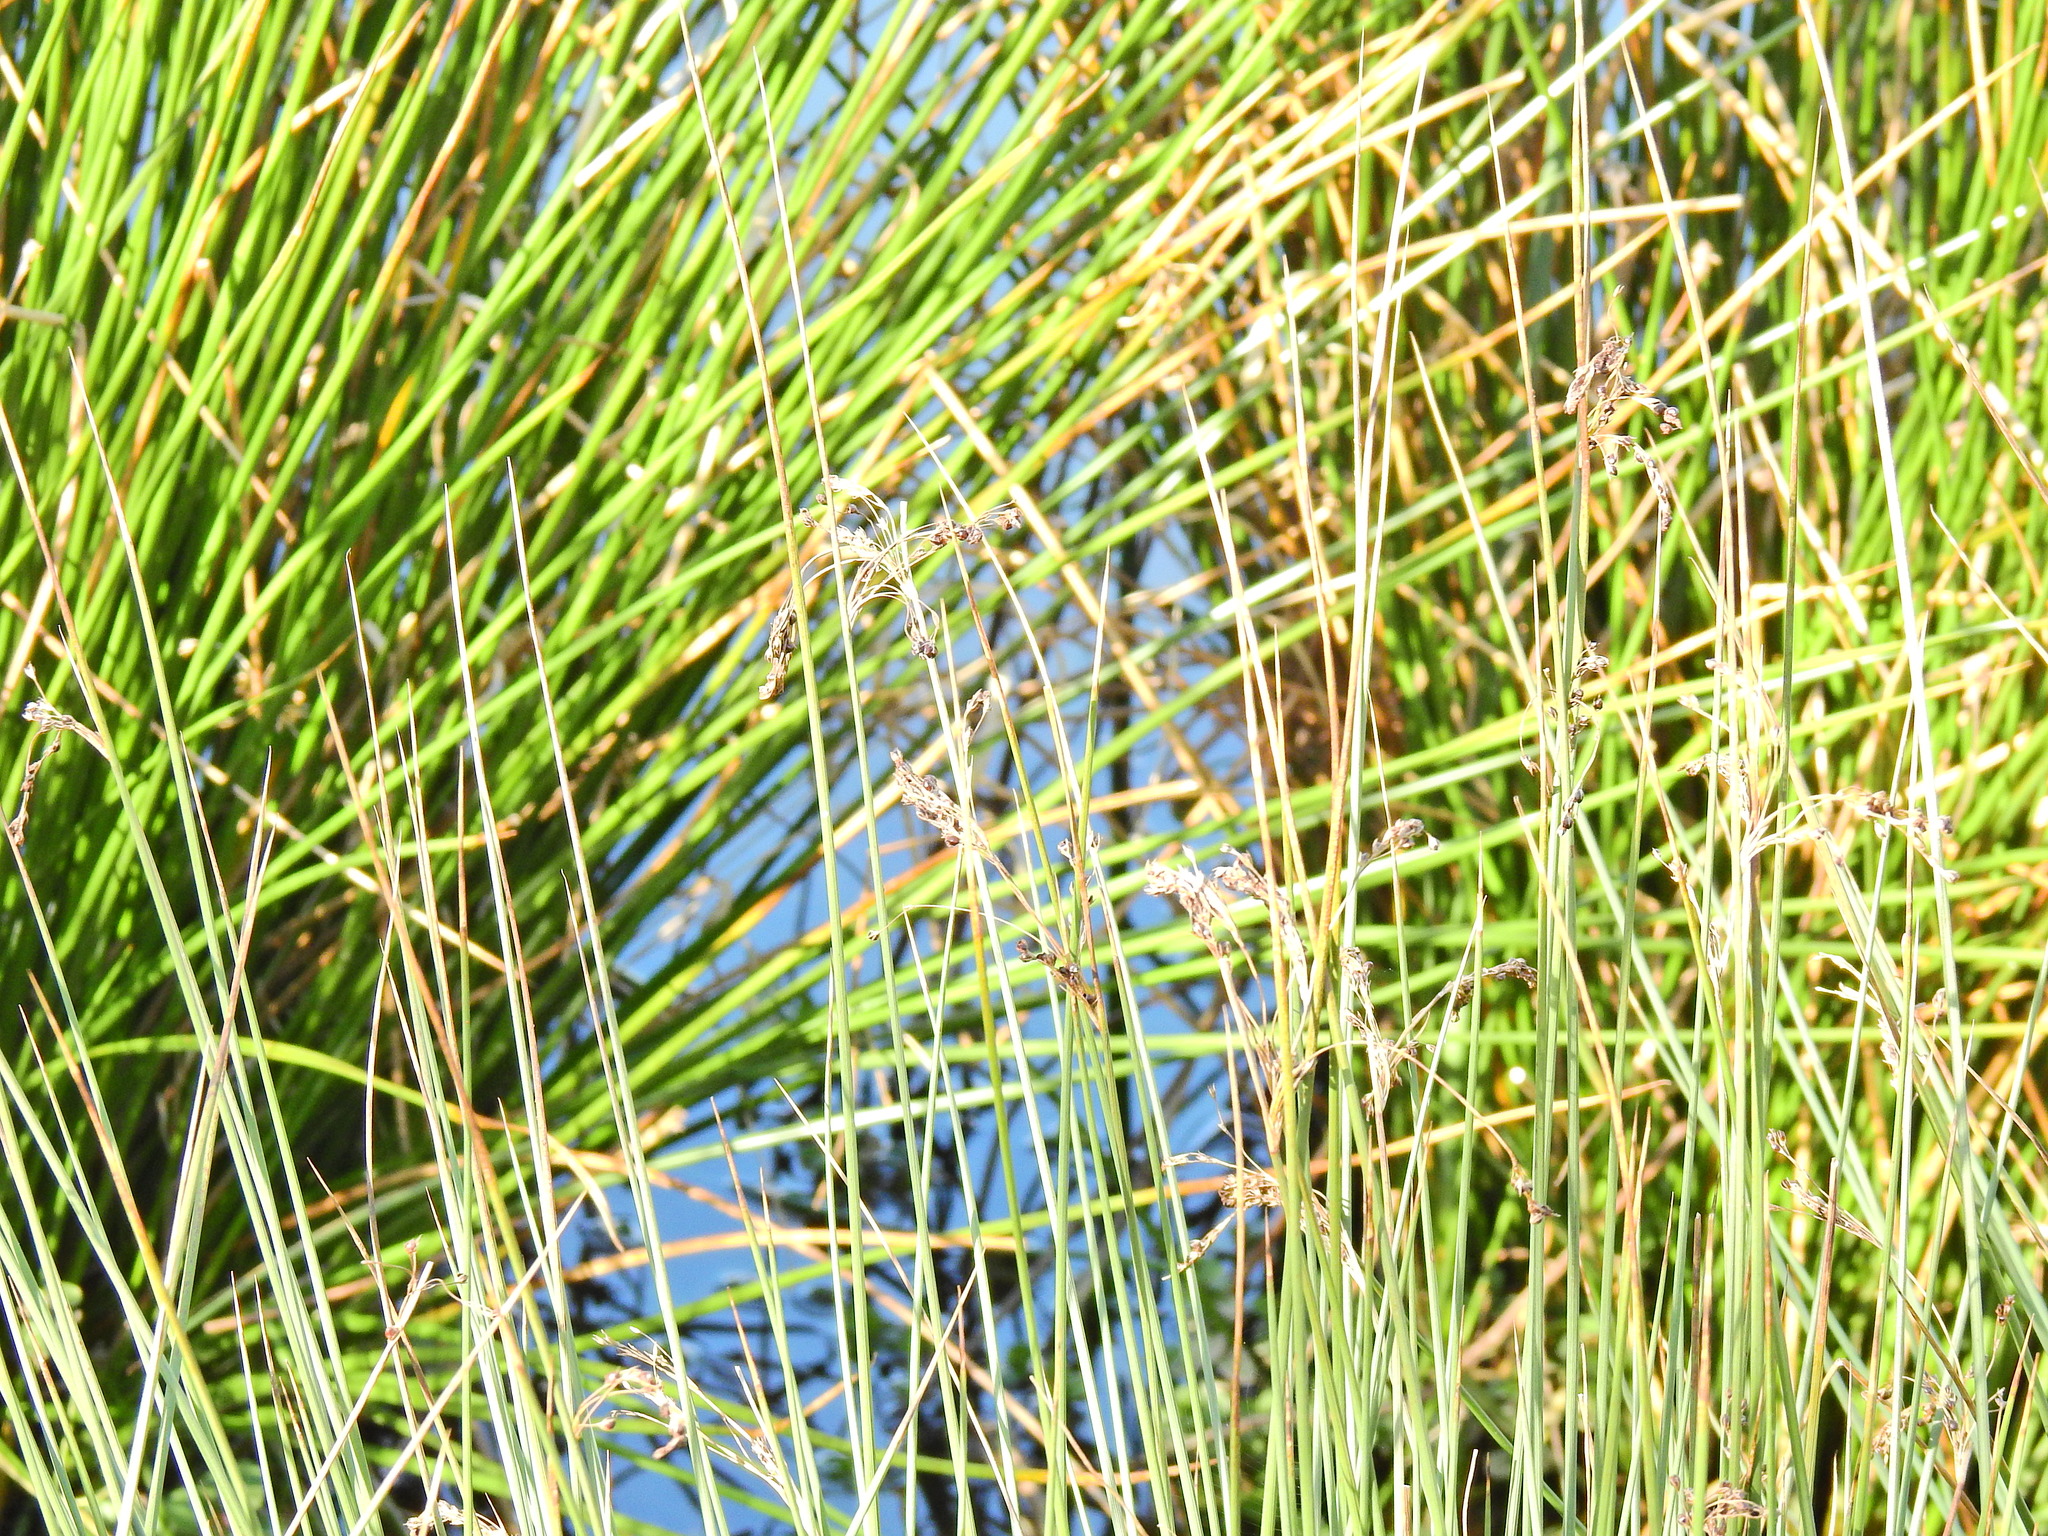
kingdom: Plantae
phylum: Tracheophyta
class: Liliopsida
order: Poales
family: Juncaceae
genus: Juncus
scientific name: Juncus inflexus
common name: Hard rush
